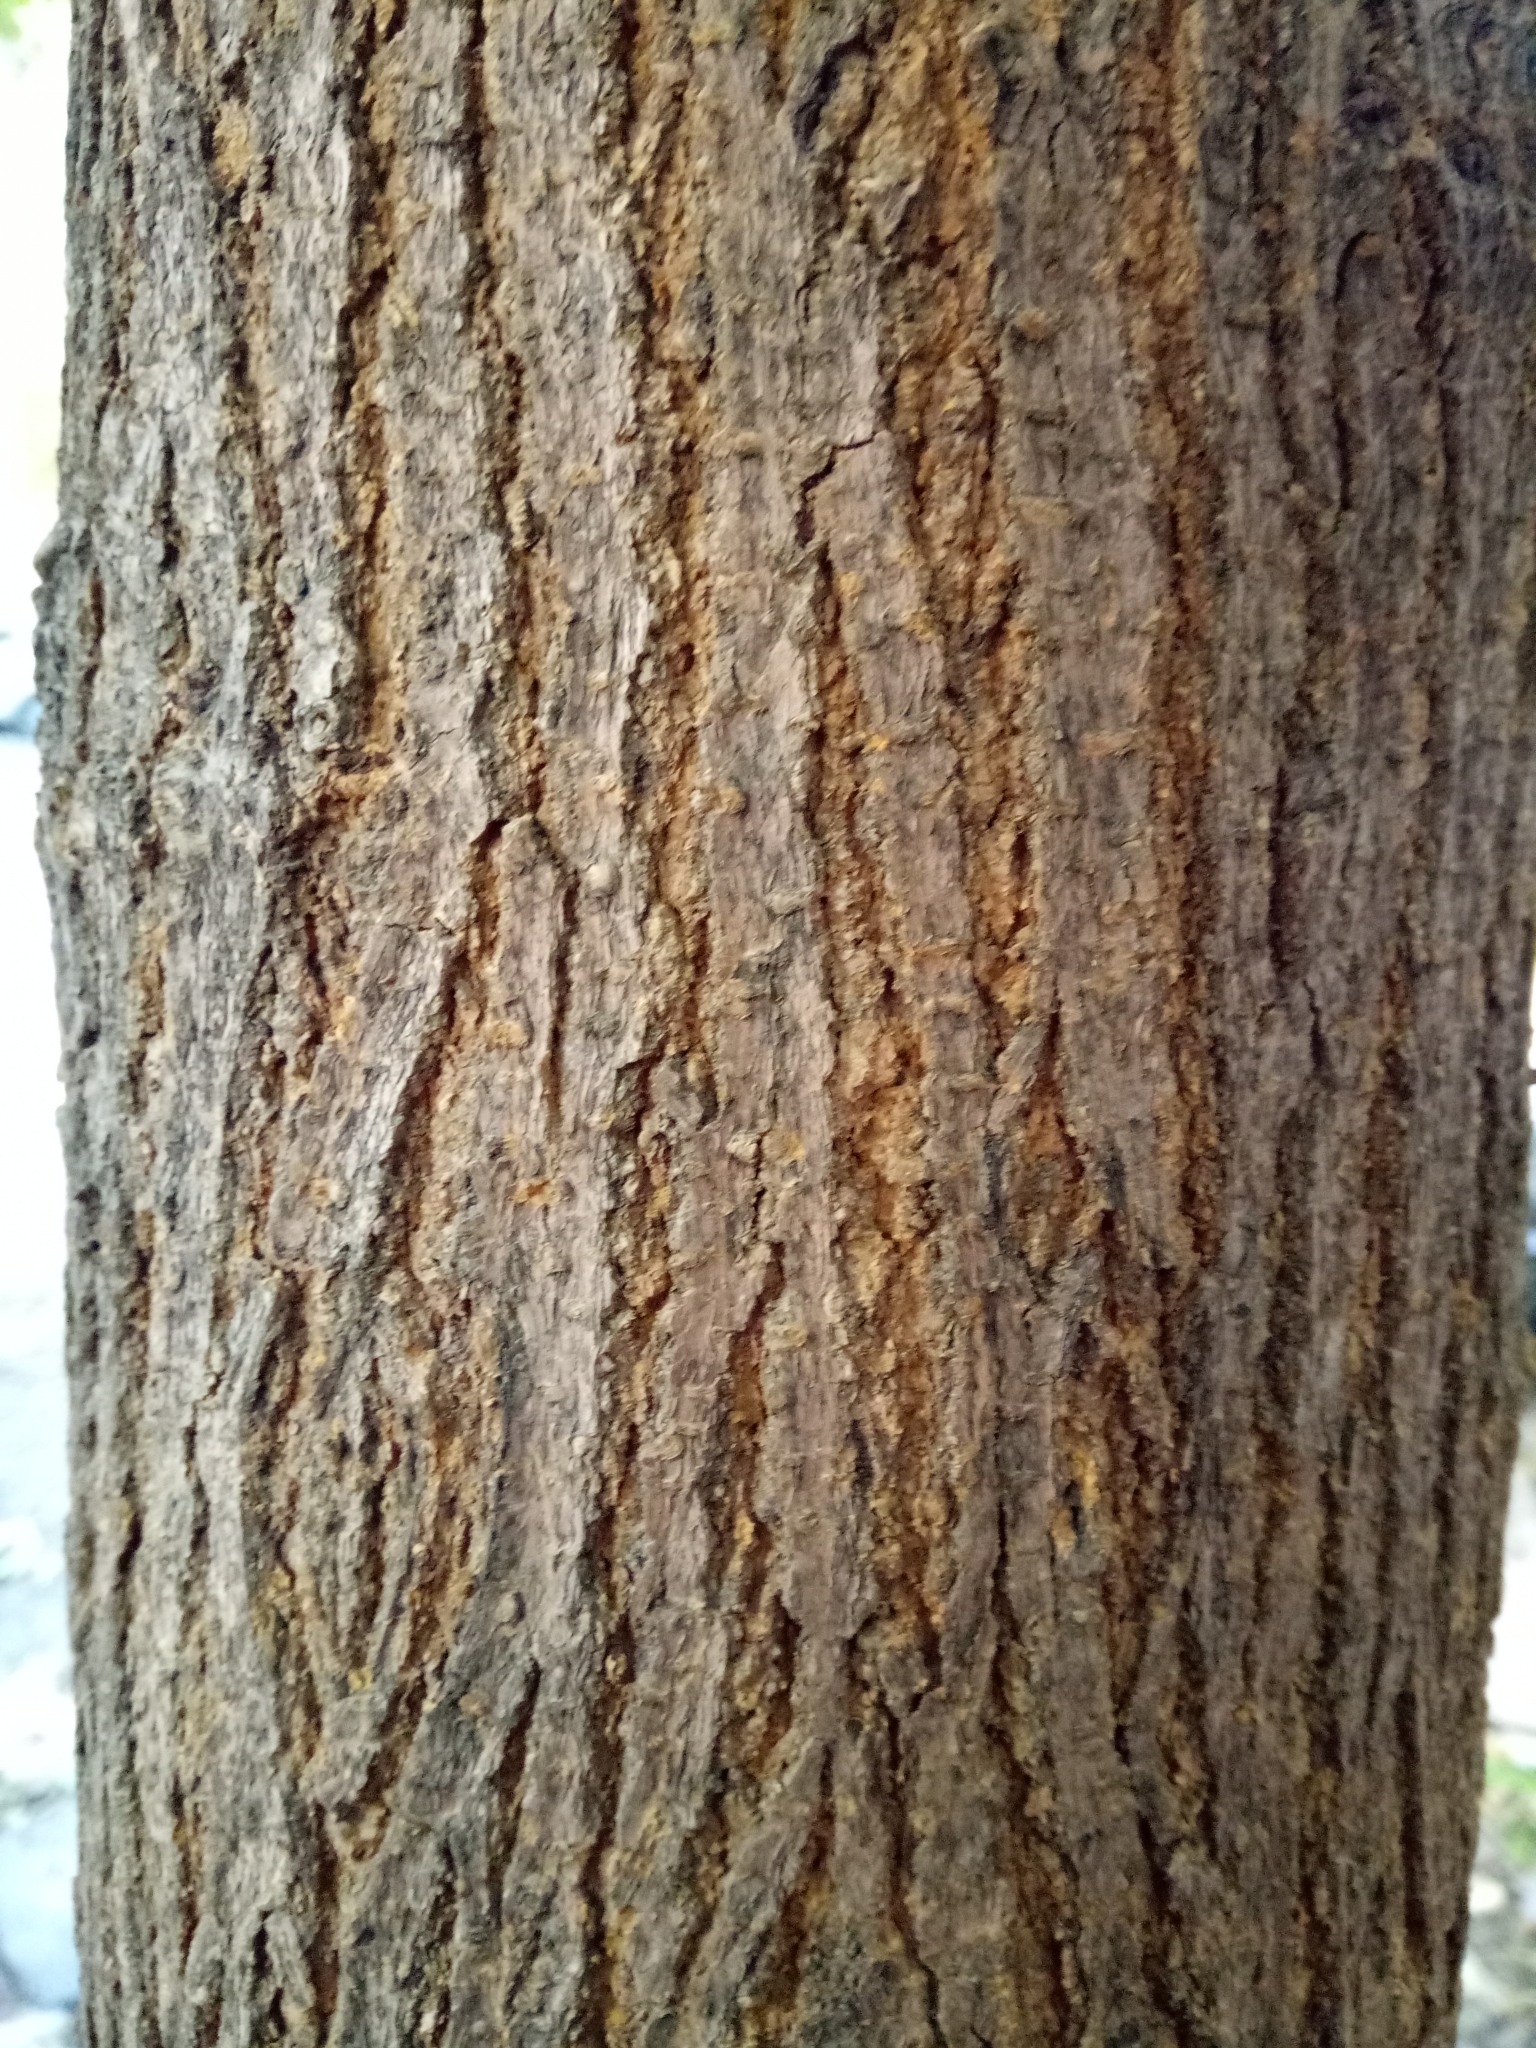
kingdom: Plantae
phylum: Tracheophyta
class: Magnoliopsida
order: Rosales
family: Moraceae
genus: Morus
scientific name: Morus alba
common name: White mulberry
